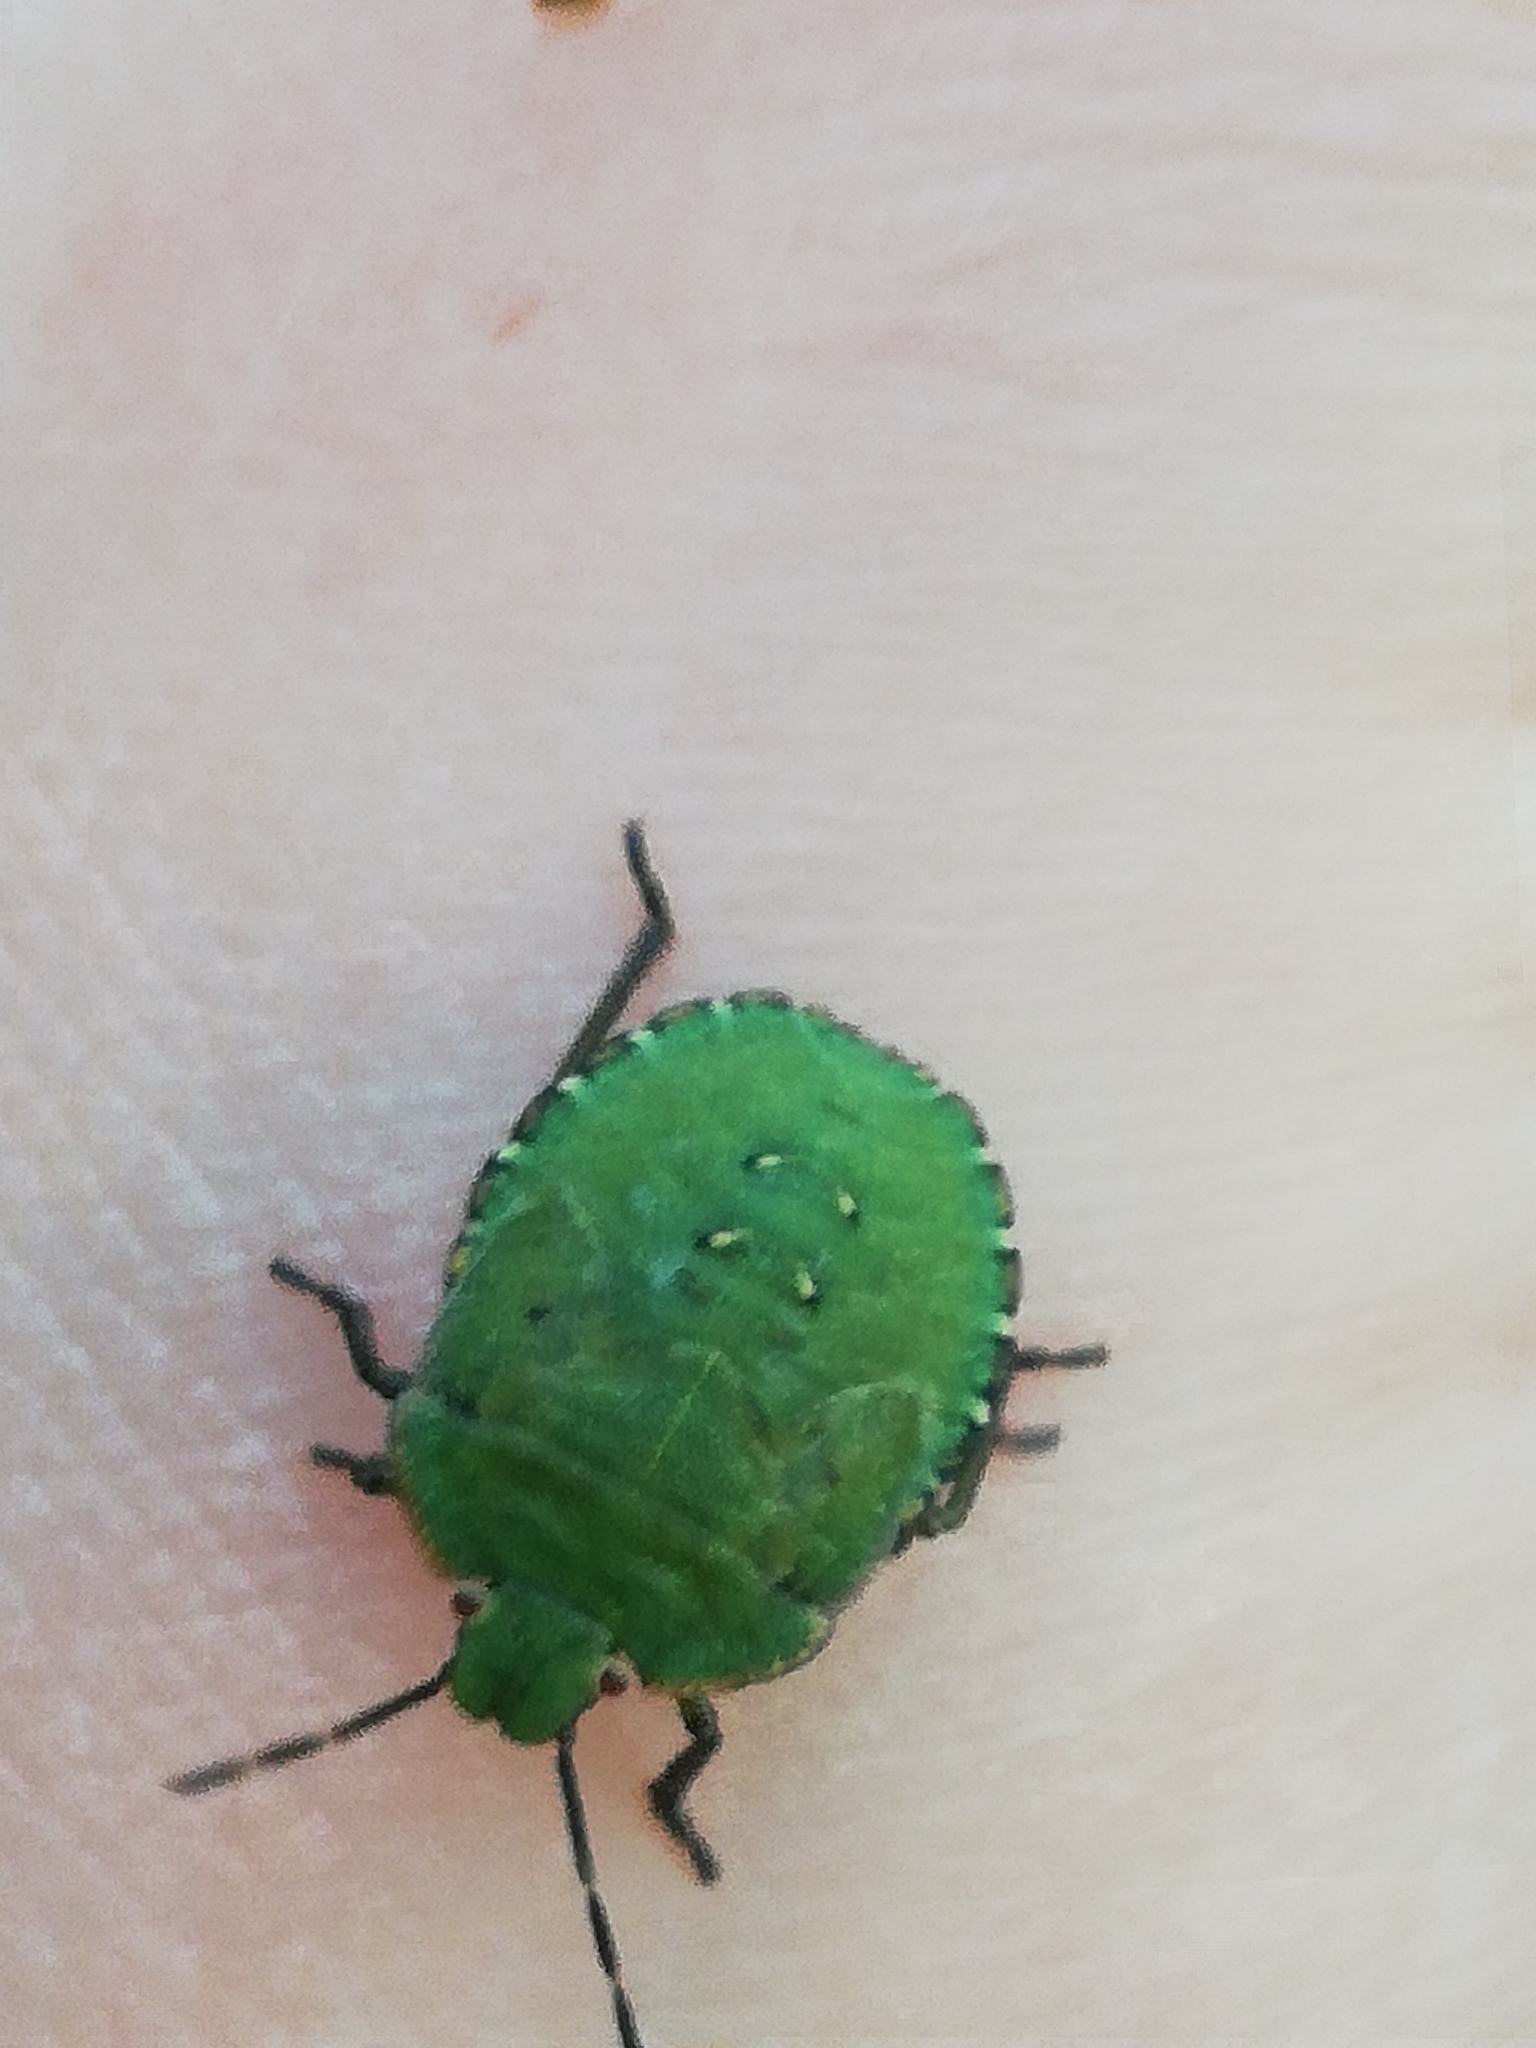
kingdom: Animalia
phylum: Arthropoda
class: Insecta
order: Hemiptera
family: Pentatomidae
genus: Palomena
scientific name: Palomena prasina
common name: Green shieldbug
